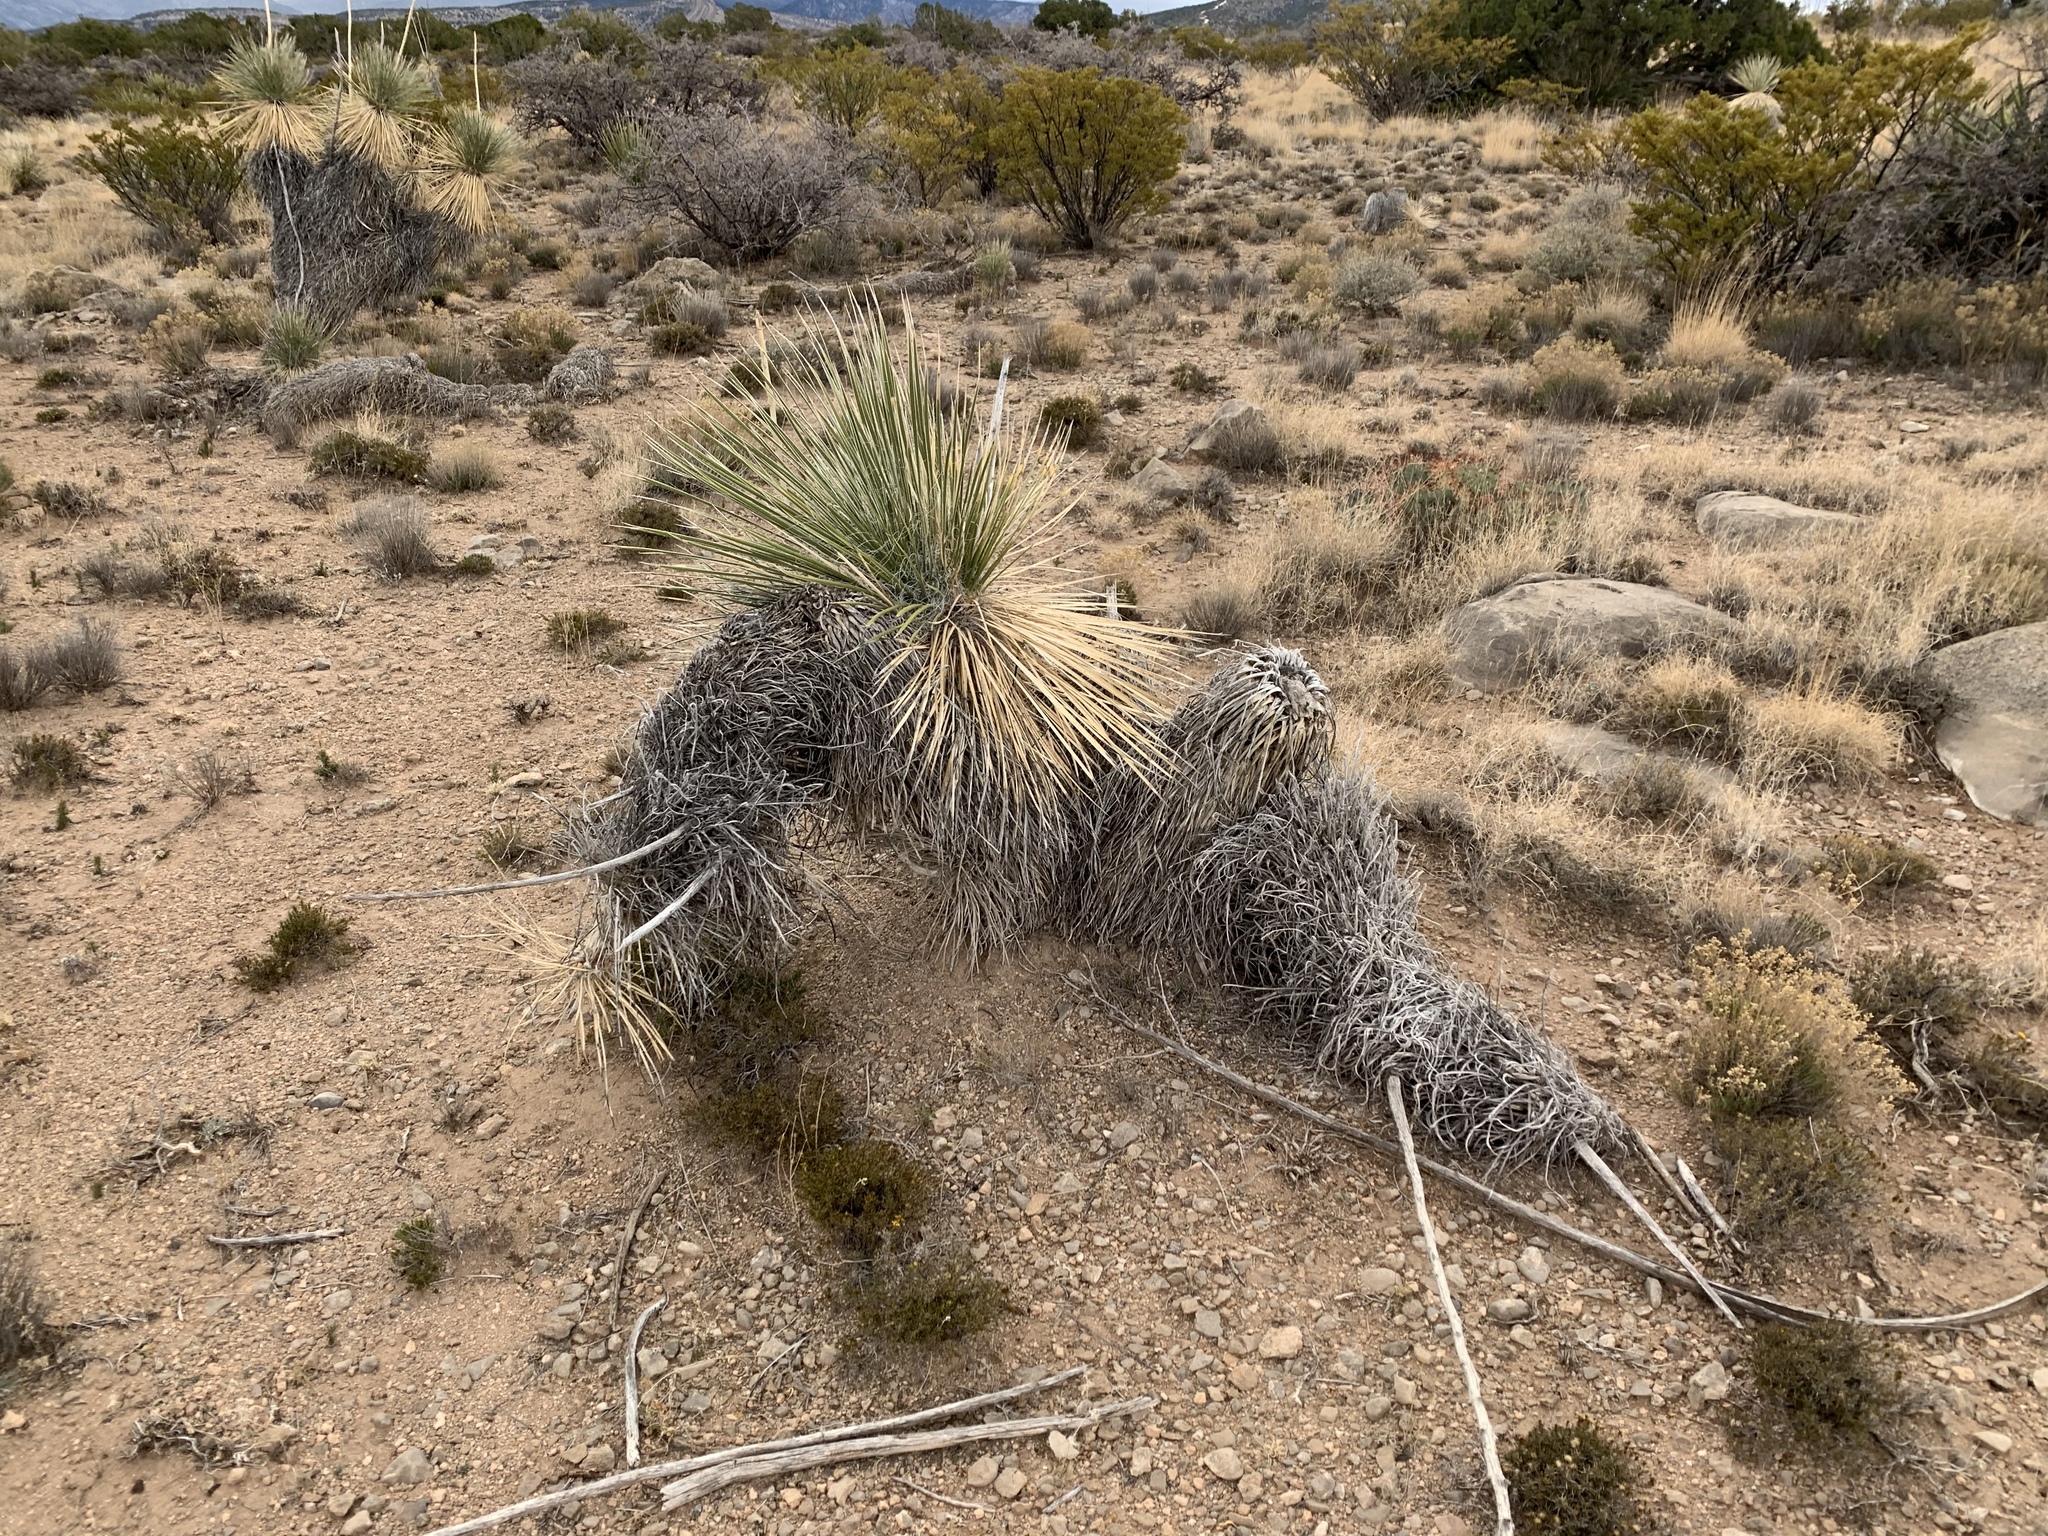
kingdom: Plantae
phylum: Tracheophyta
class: Liliopsida
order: Asparagales
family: Asparagaceae
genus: Yucca
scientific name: Yucca elata
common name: Palmella
